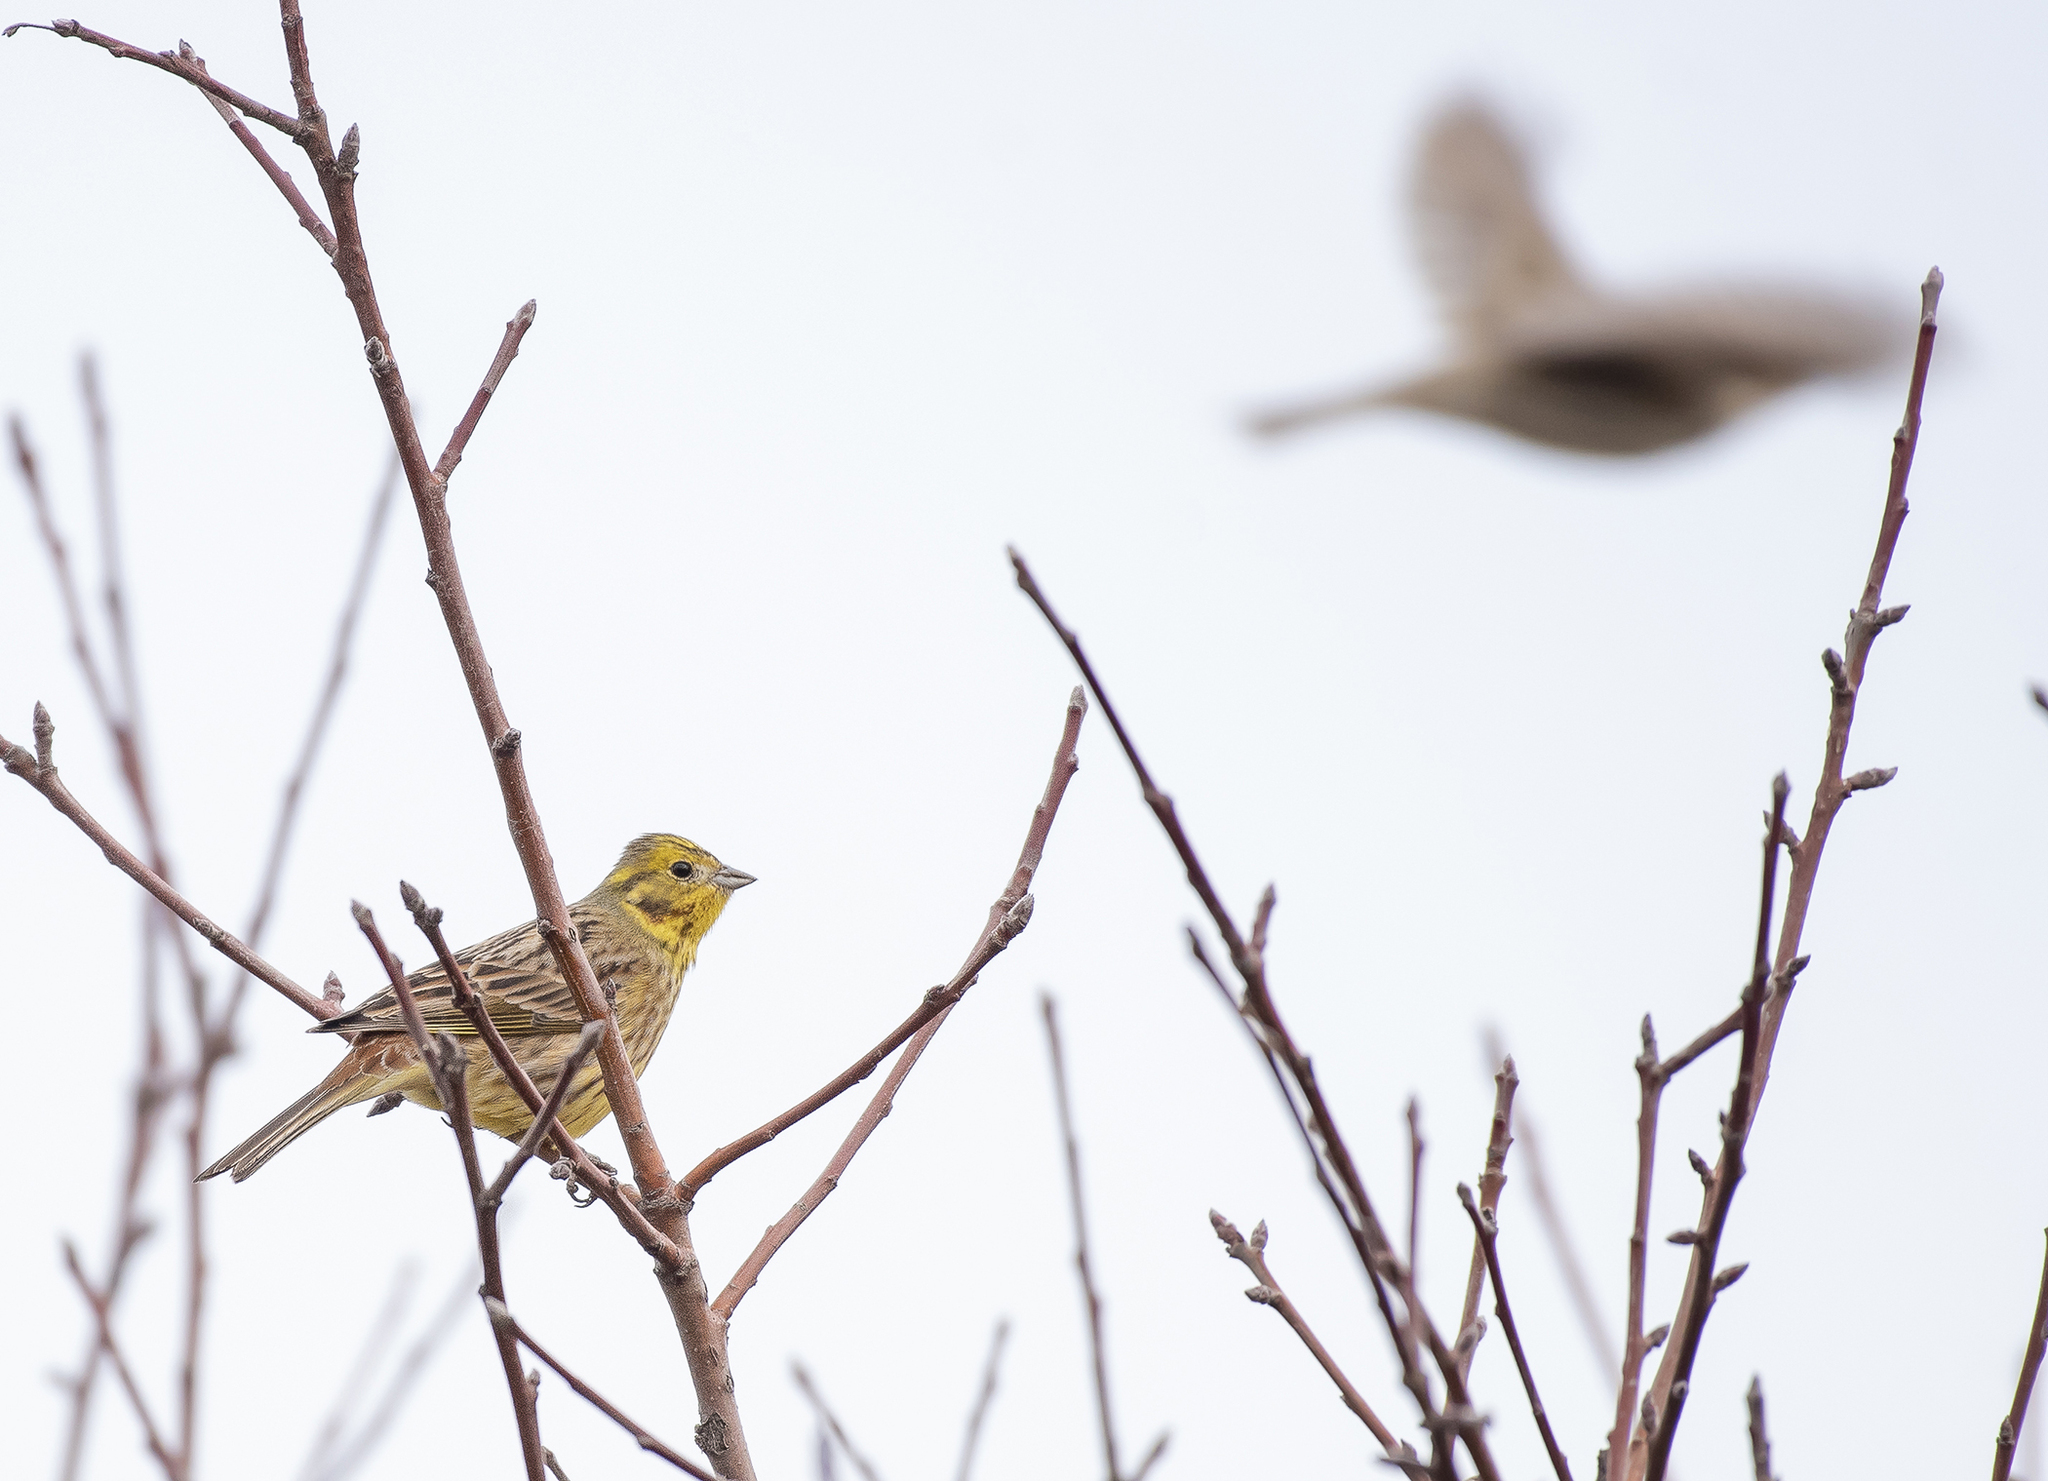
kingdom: Animalia
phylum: Chordata
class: Aves
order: Passeriformes
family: Emberizidae
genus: Emberiza
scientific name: Emberiza citrinella
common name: Yellowhammer
